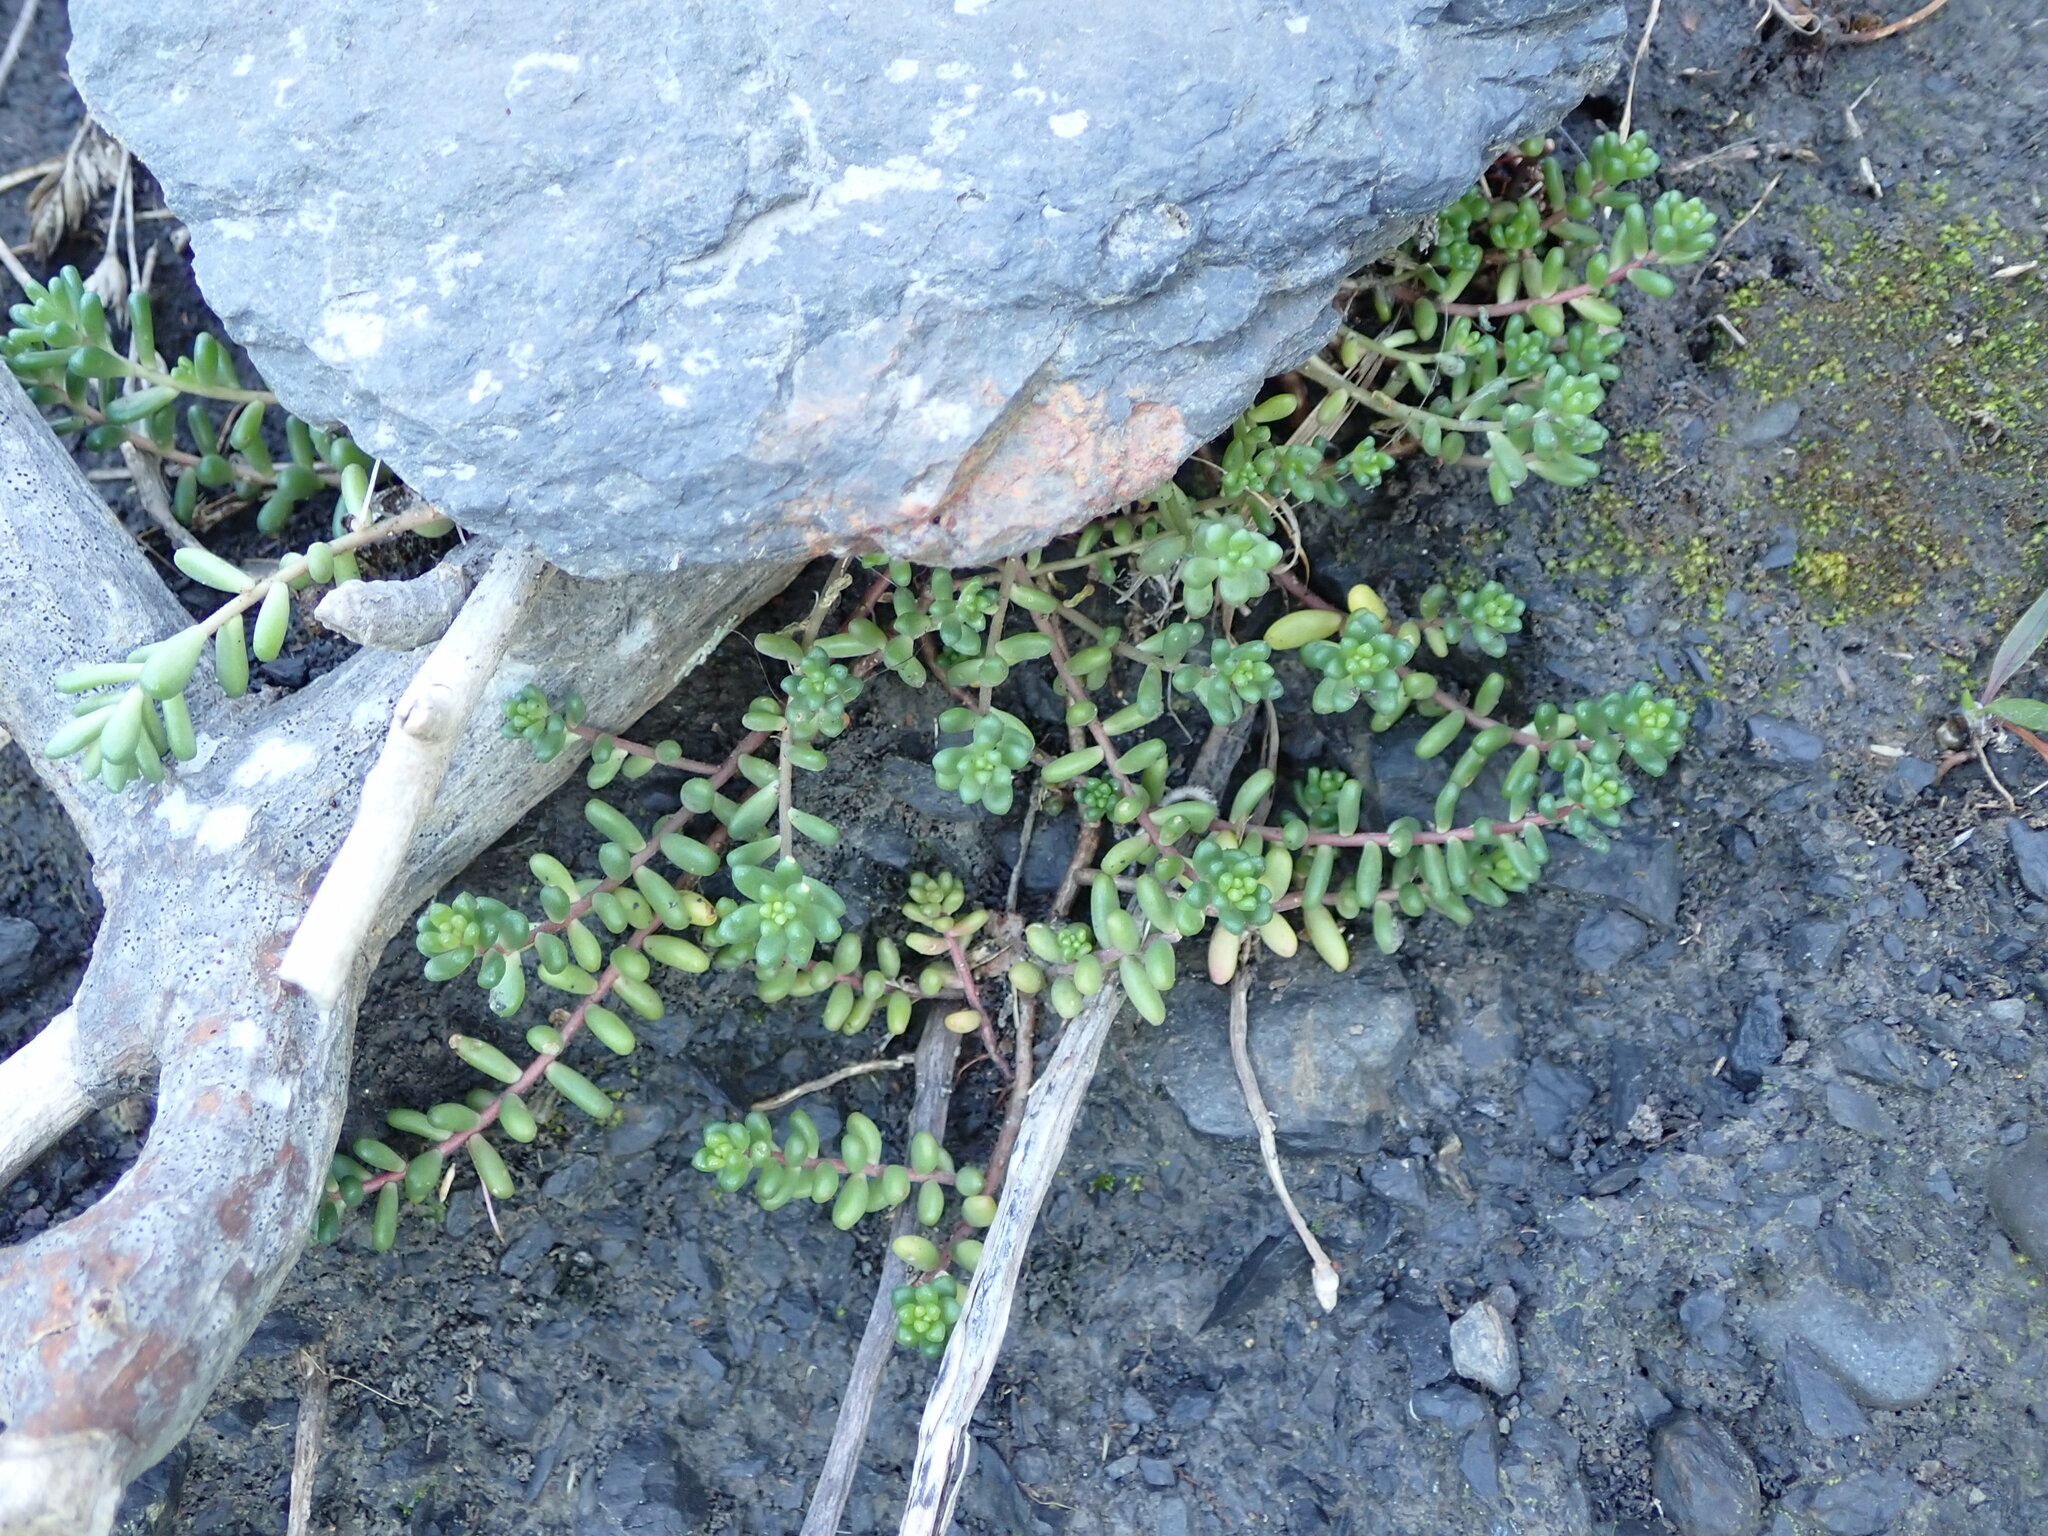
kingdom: Plantae
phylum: Tracheophyta
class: Magnoliopsida
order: Saxifragales
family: Crassulaceae
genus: Sedum
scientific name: Sedum album
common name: White stonecrop
